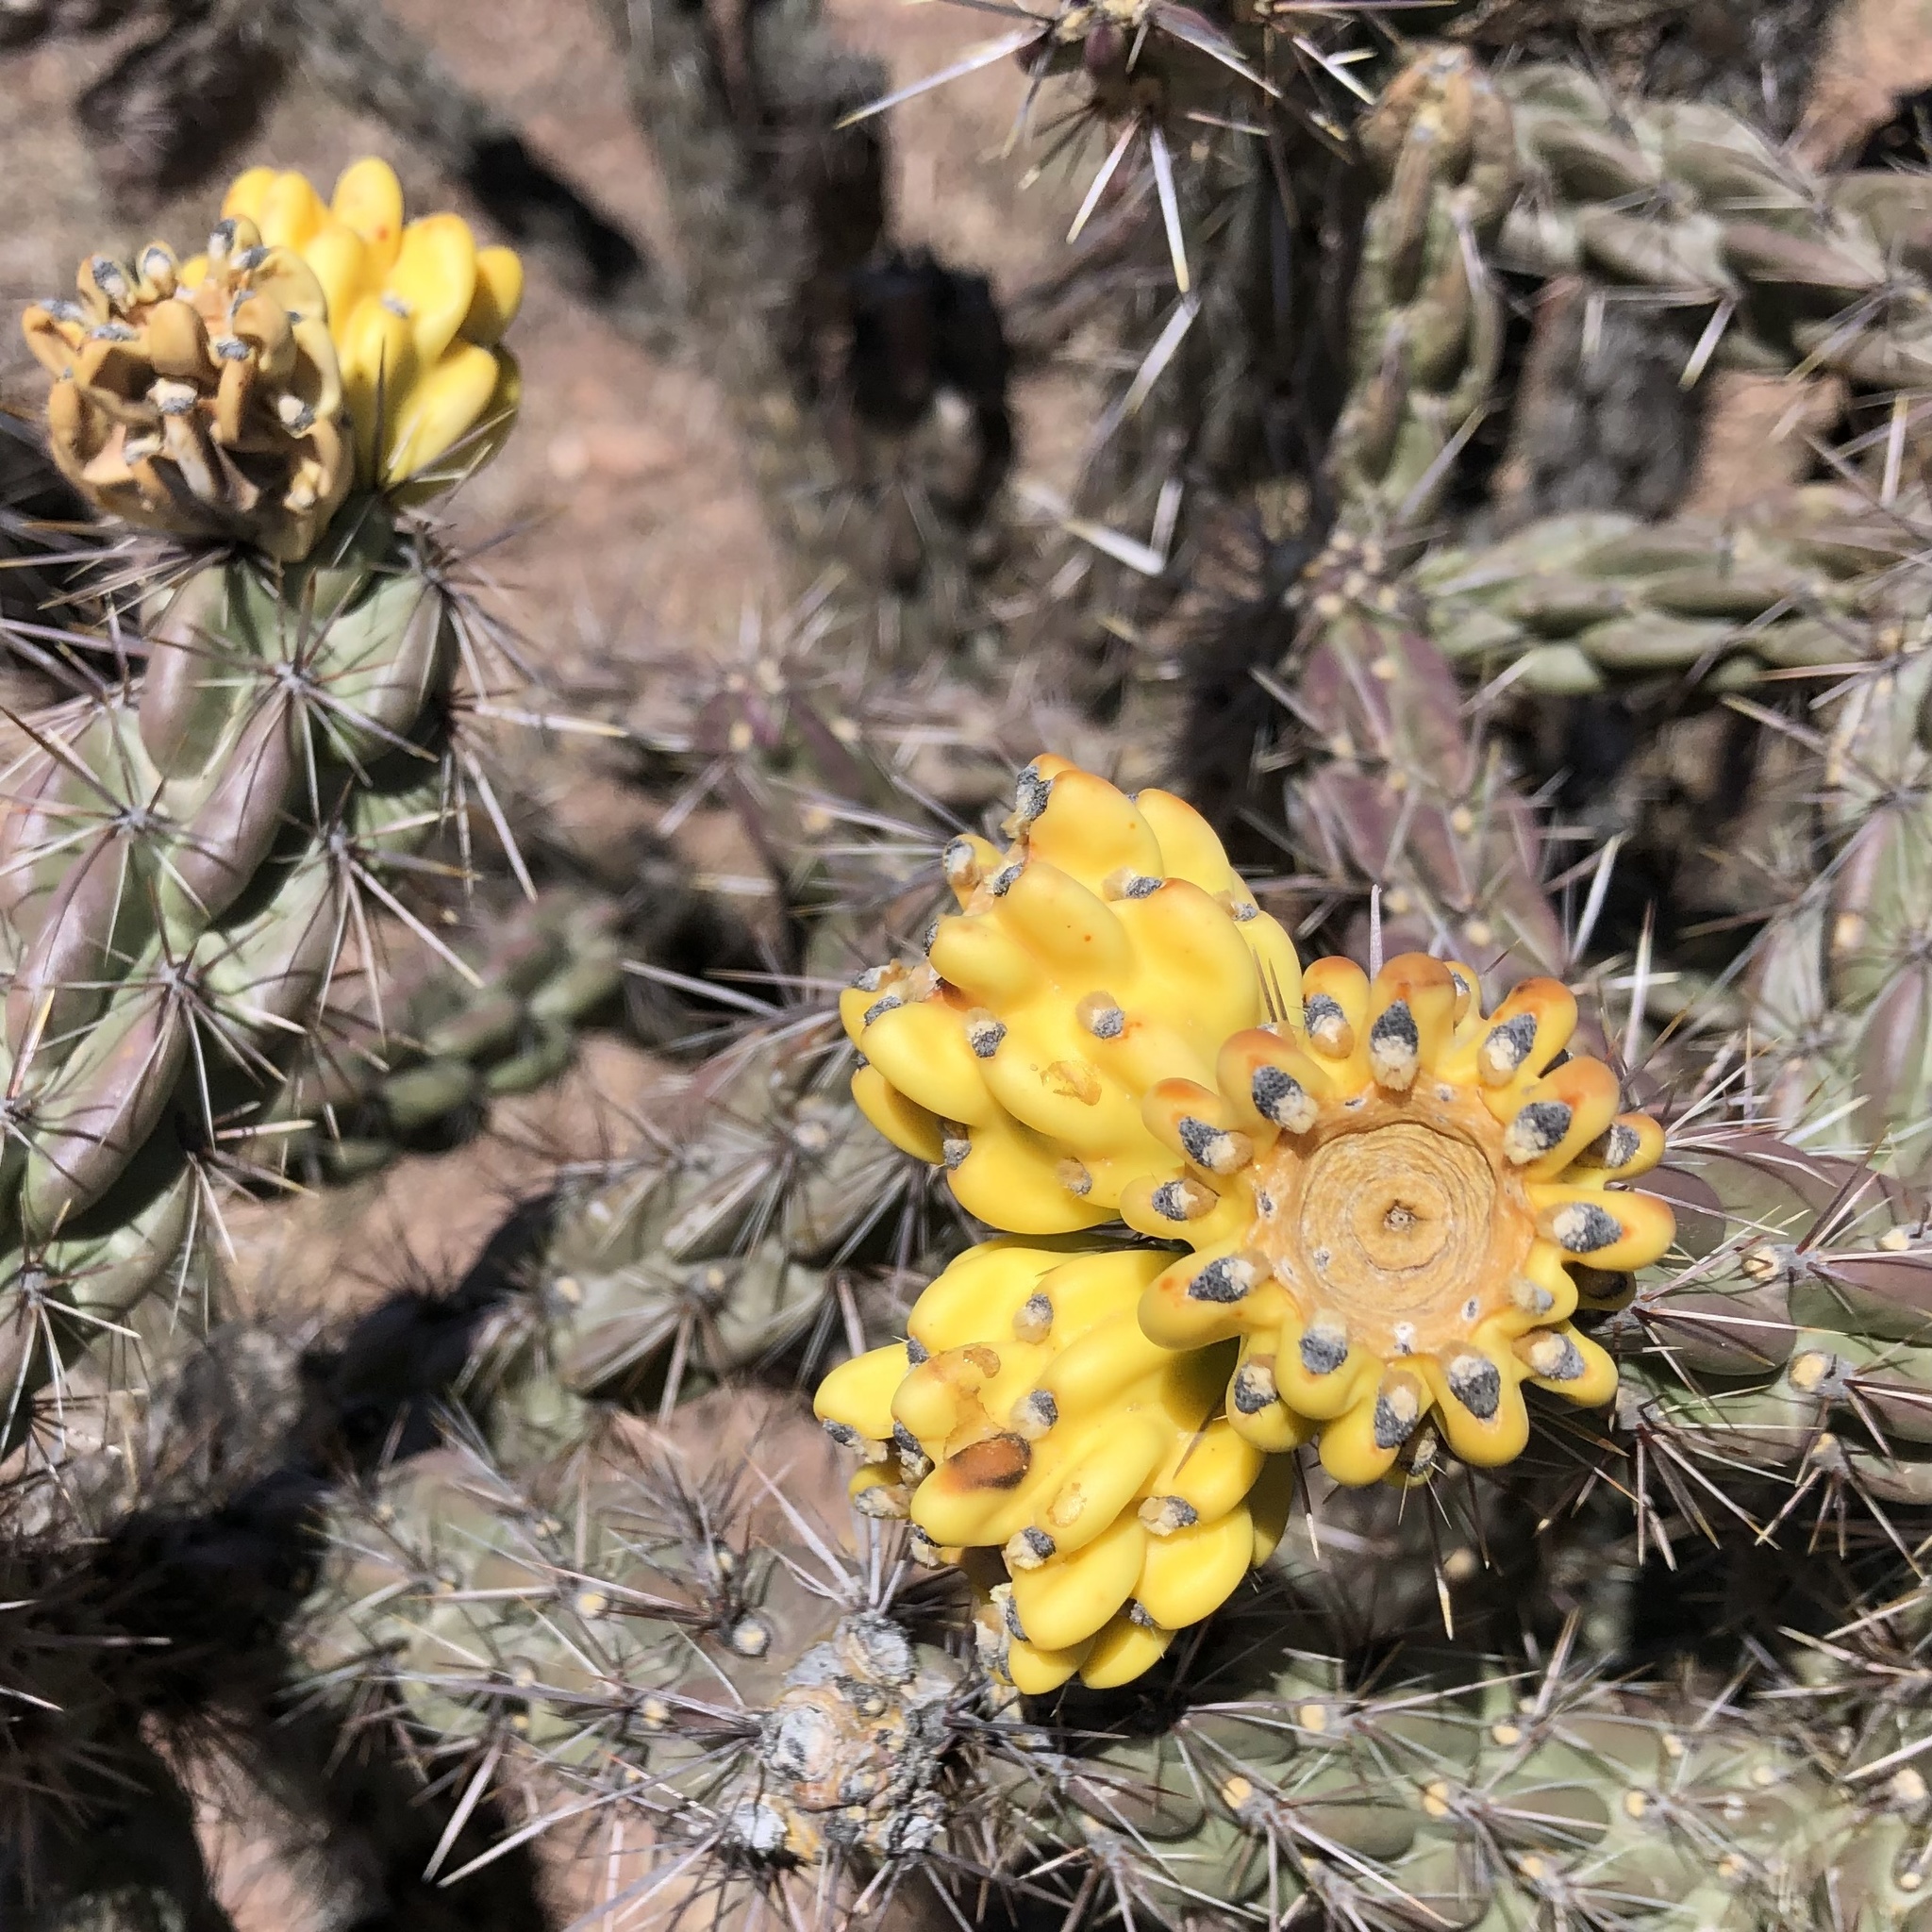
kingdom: Plantae
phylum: Tracheophyta
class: Magnoliopsida
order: Caryophyllales
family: Cactaceae
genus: Cylindropuntia
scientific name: Cylindropuntia imbricata
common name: Candelabrum cactus
